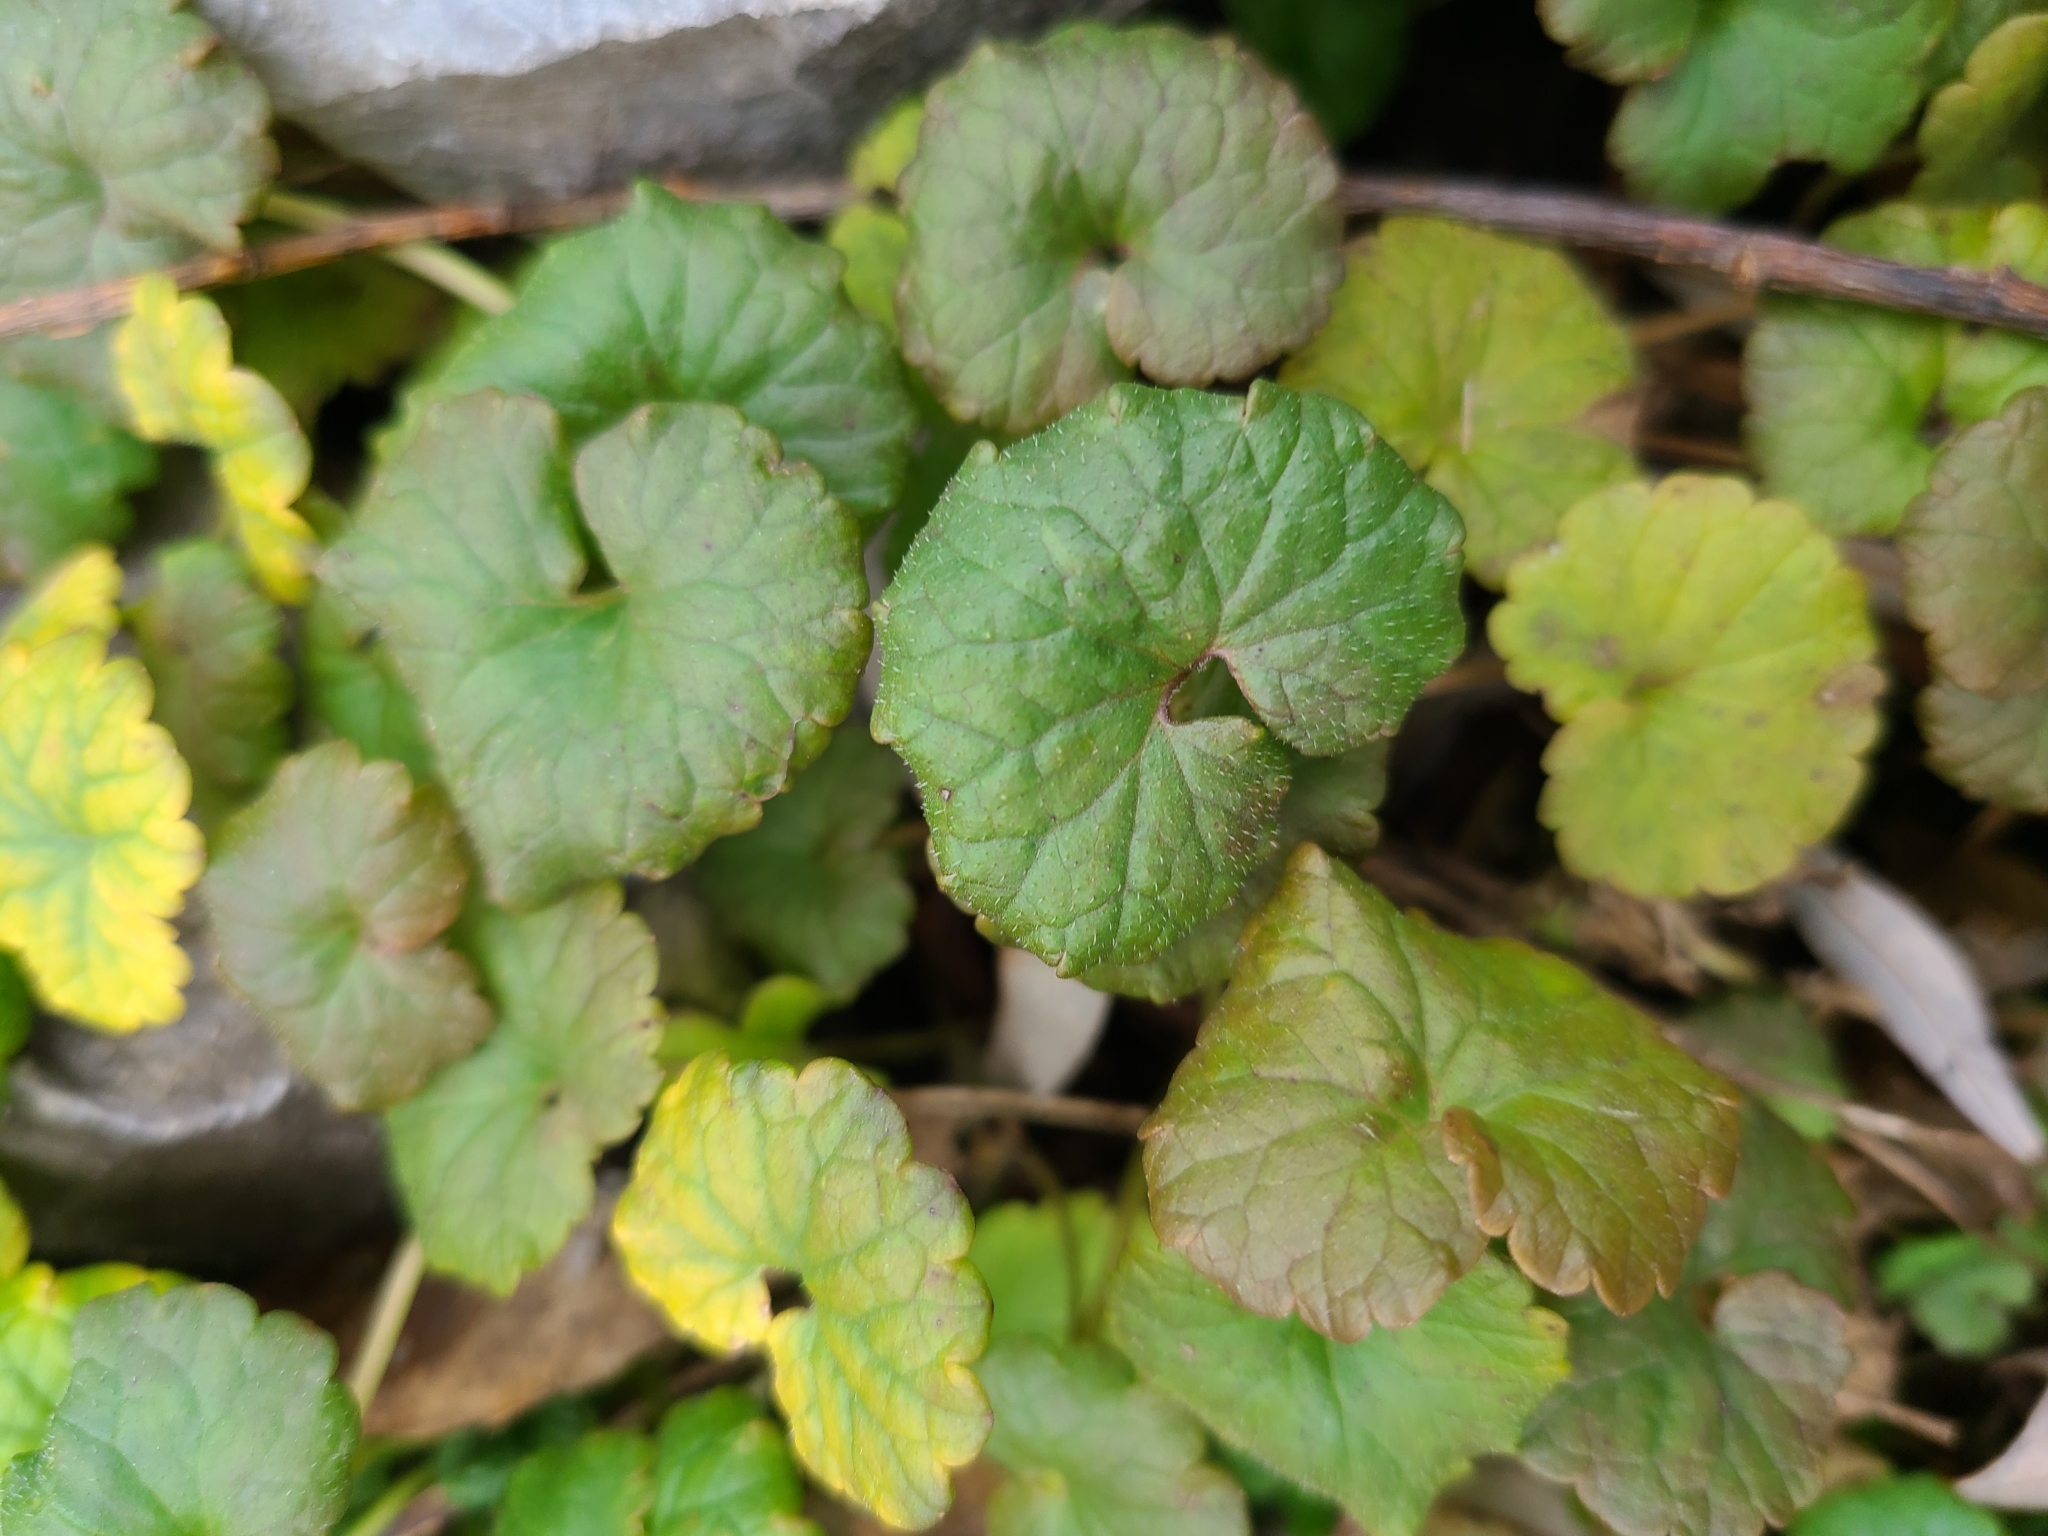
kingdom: Plantae
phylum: Tracheophyta
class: Magnoliopsida
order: Lamiales
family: Lamiaceae
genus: Glechoma
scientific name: Glechoma hederacea
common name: Ground ivy
